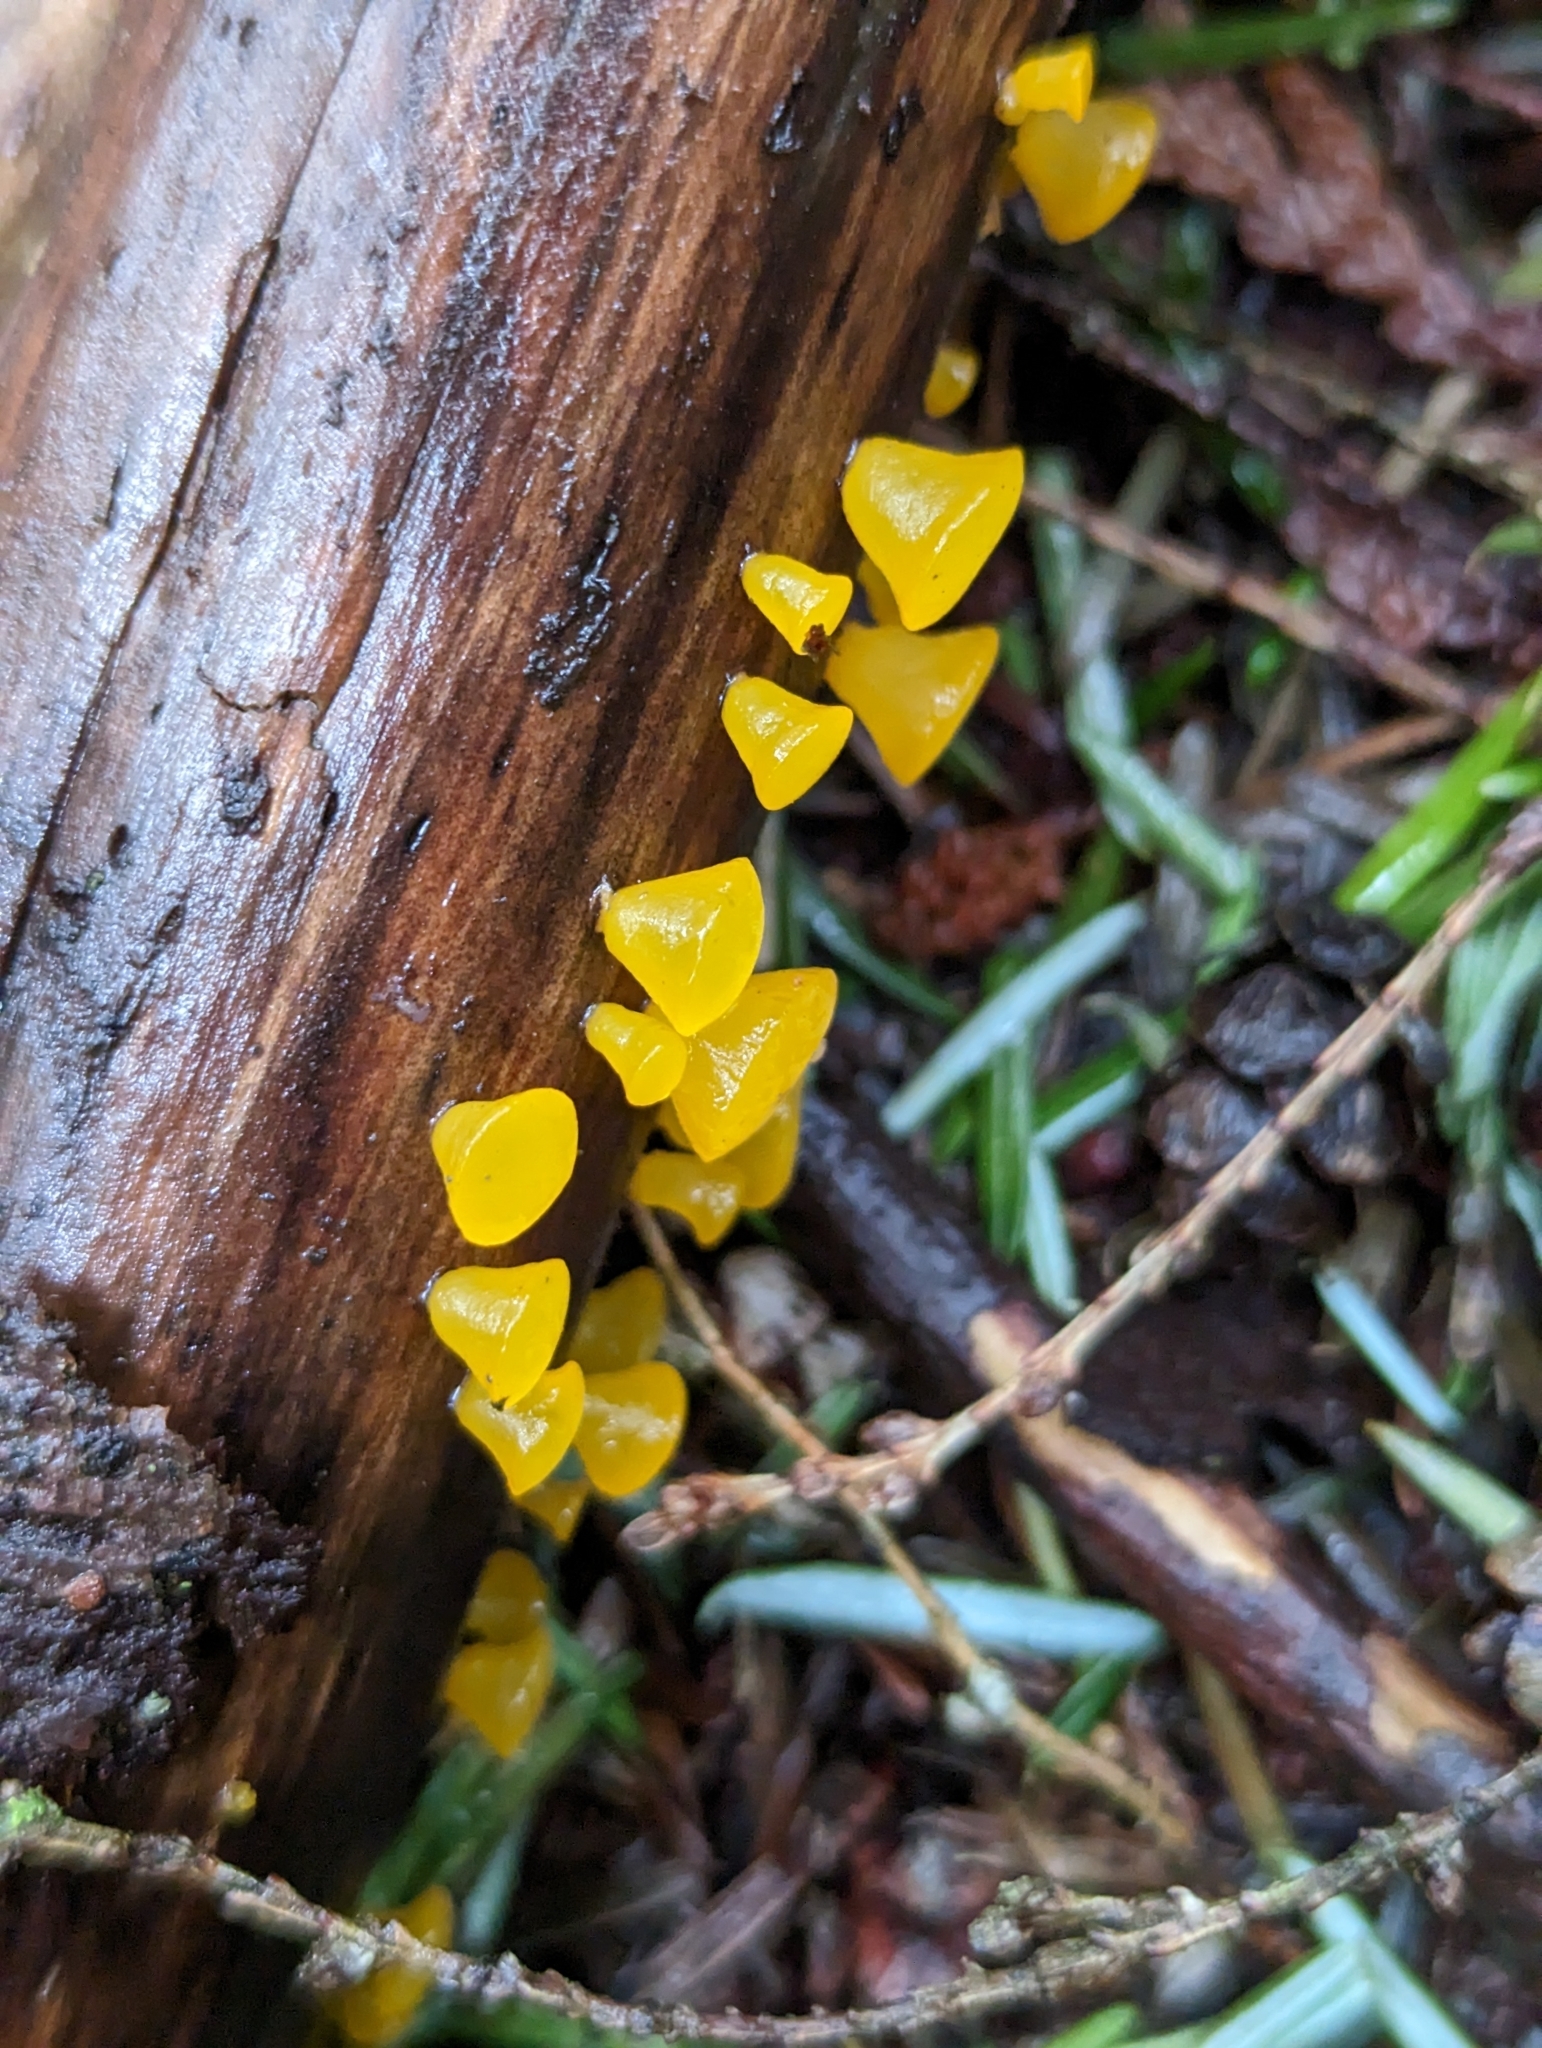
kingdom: Fungi
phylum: Basidiomycota
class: Dacrymycetes
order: Dacrymycetales
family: Dacrymycetaceae
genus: Guepiniopsis
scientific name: Guepiniopsis alpina
